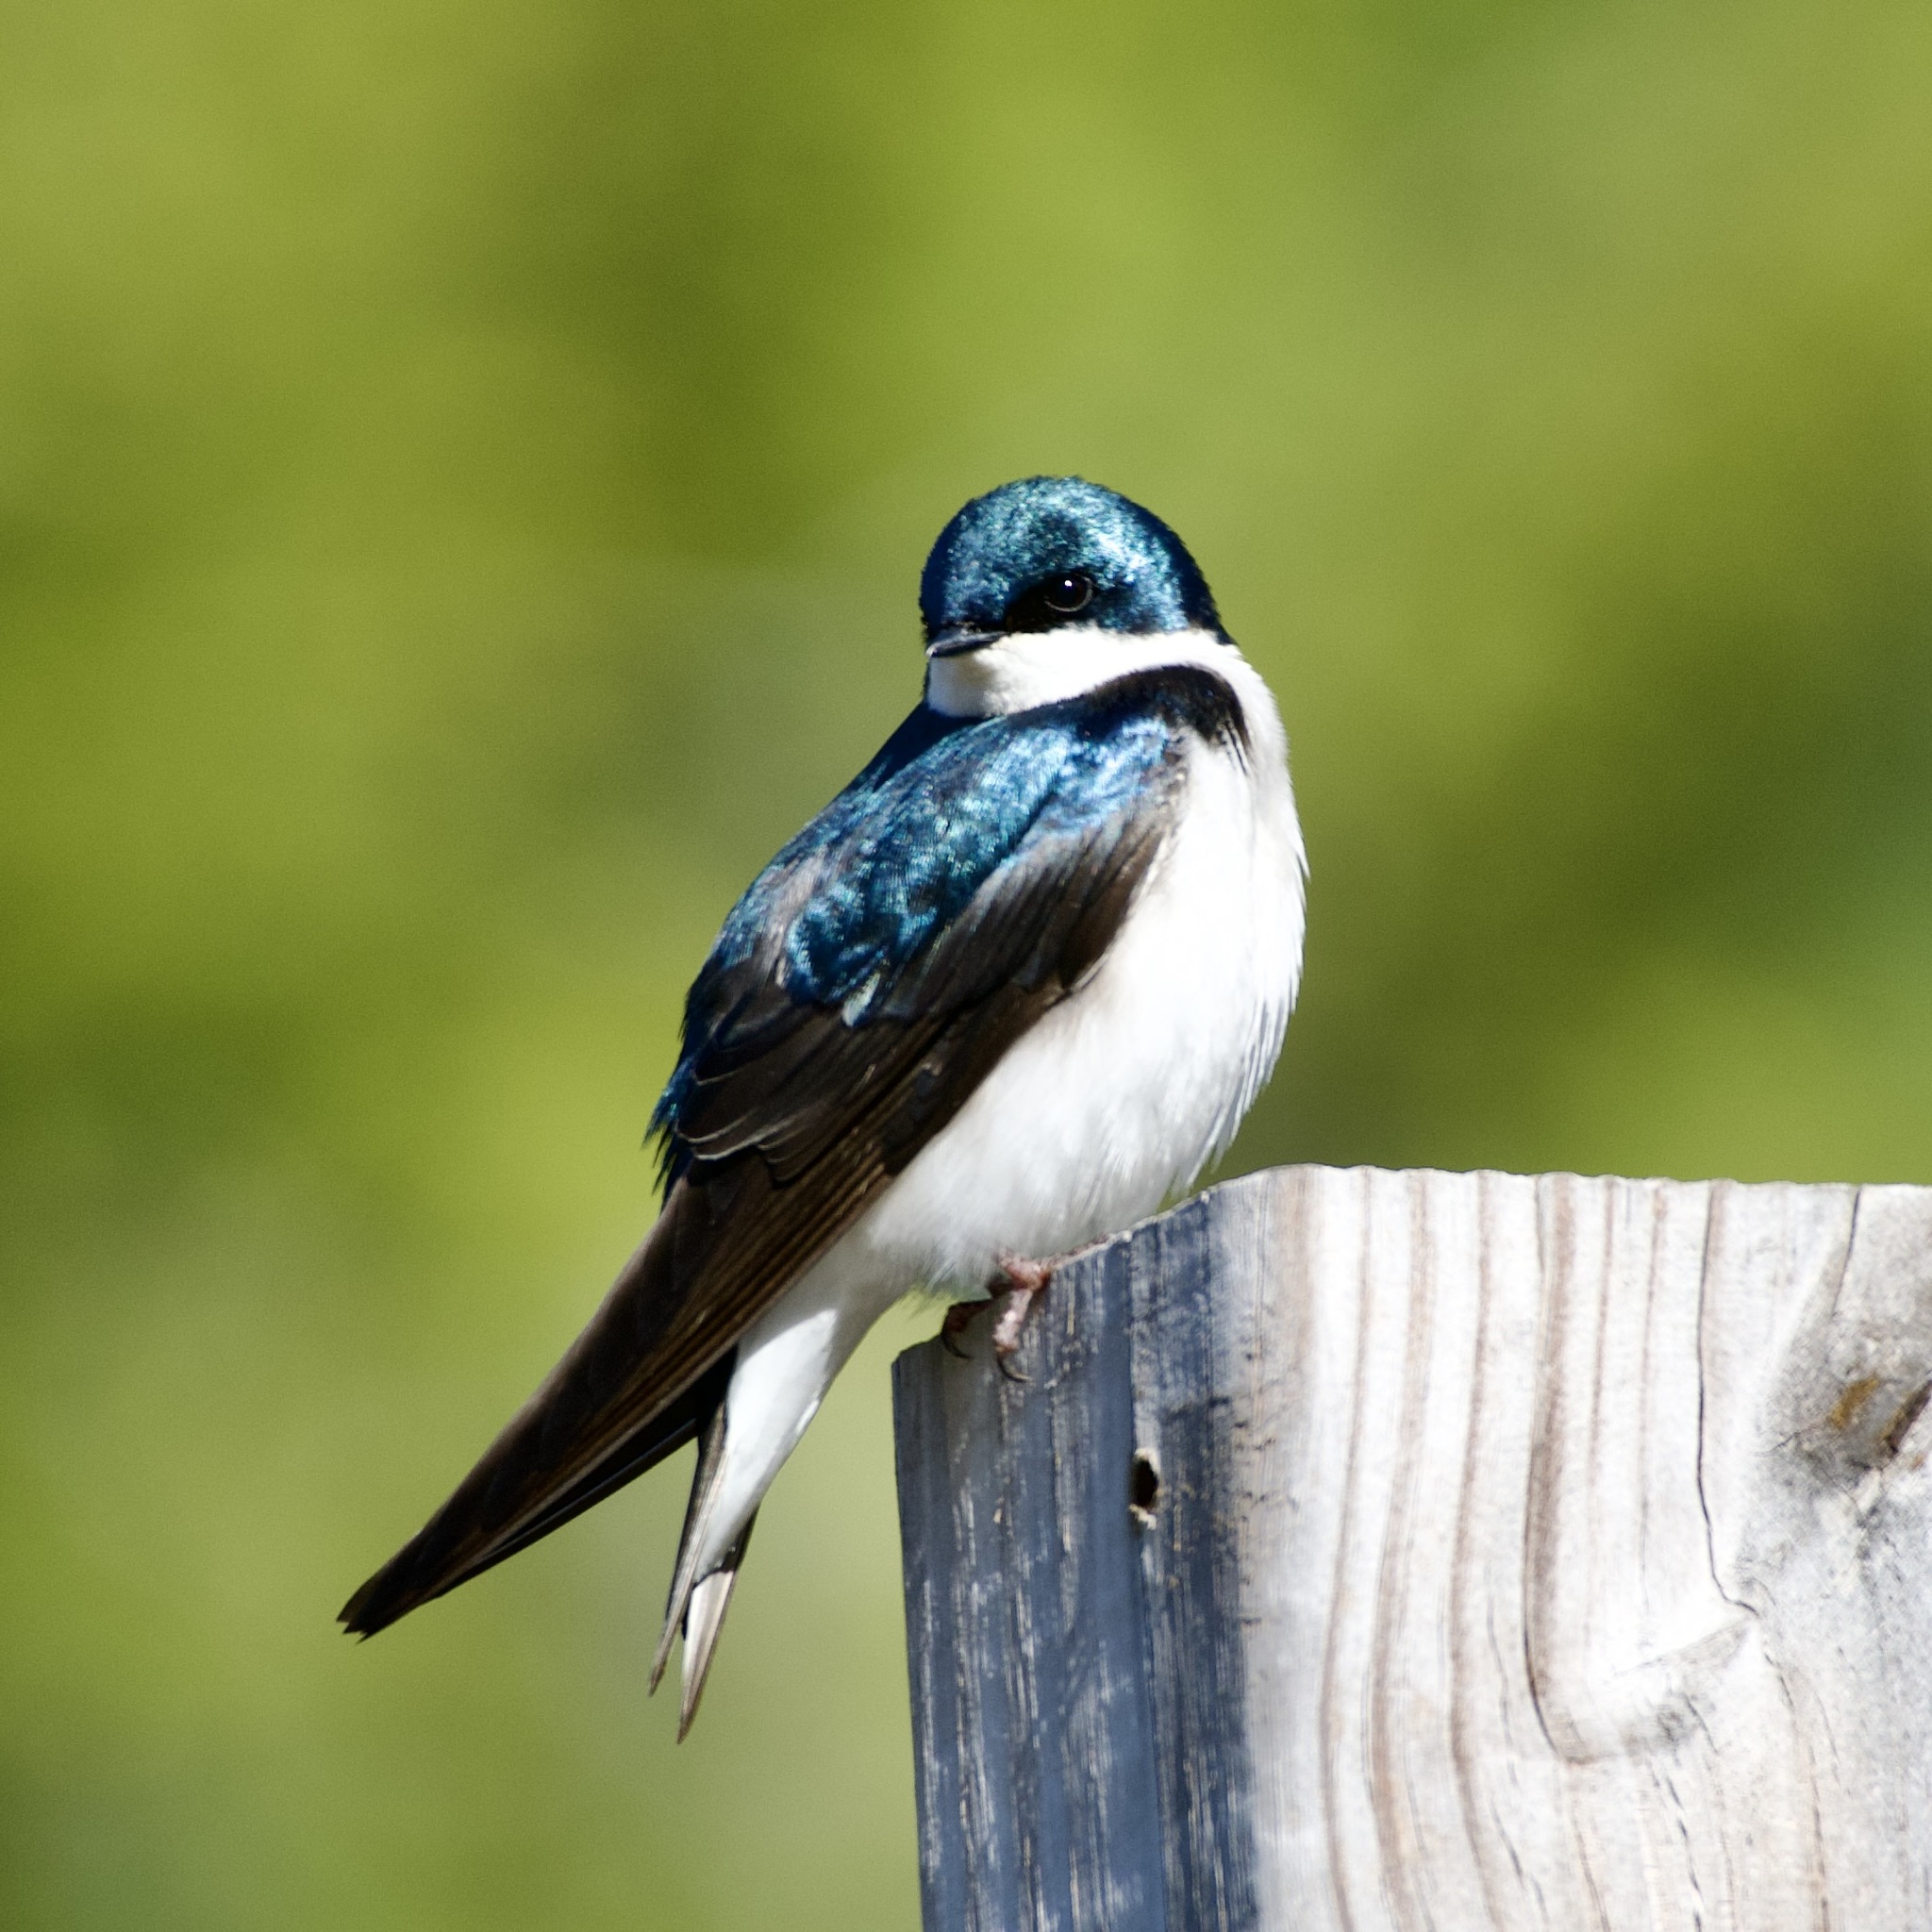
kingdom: Animalia
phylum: Chordata
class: Aves
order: Passeriformes
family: Hirundinidae
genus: Tachycineta
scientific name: Tachycineta bicolor
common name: Tree swallow
